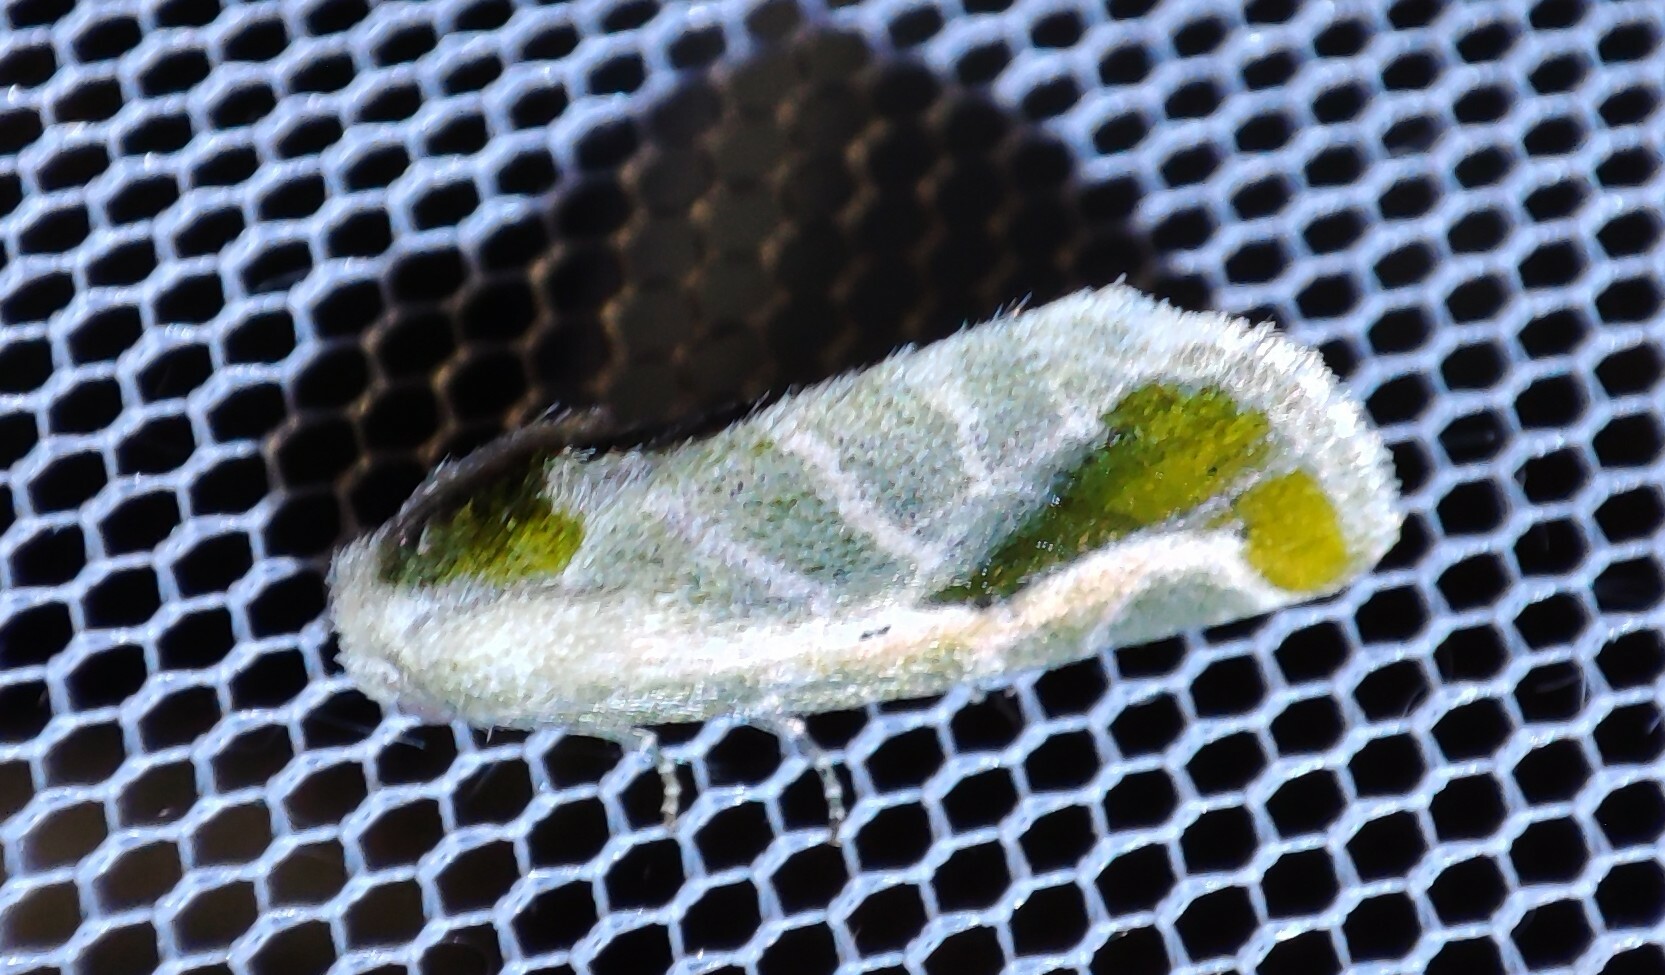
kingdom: Animalia
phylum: Arthropoda
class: Insecta
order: Lepidoptera
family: Noctuidae
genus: Autoba
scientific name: Autoba admota
